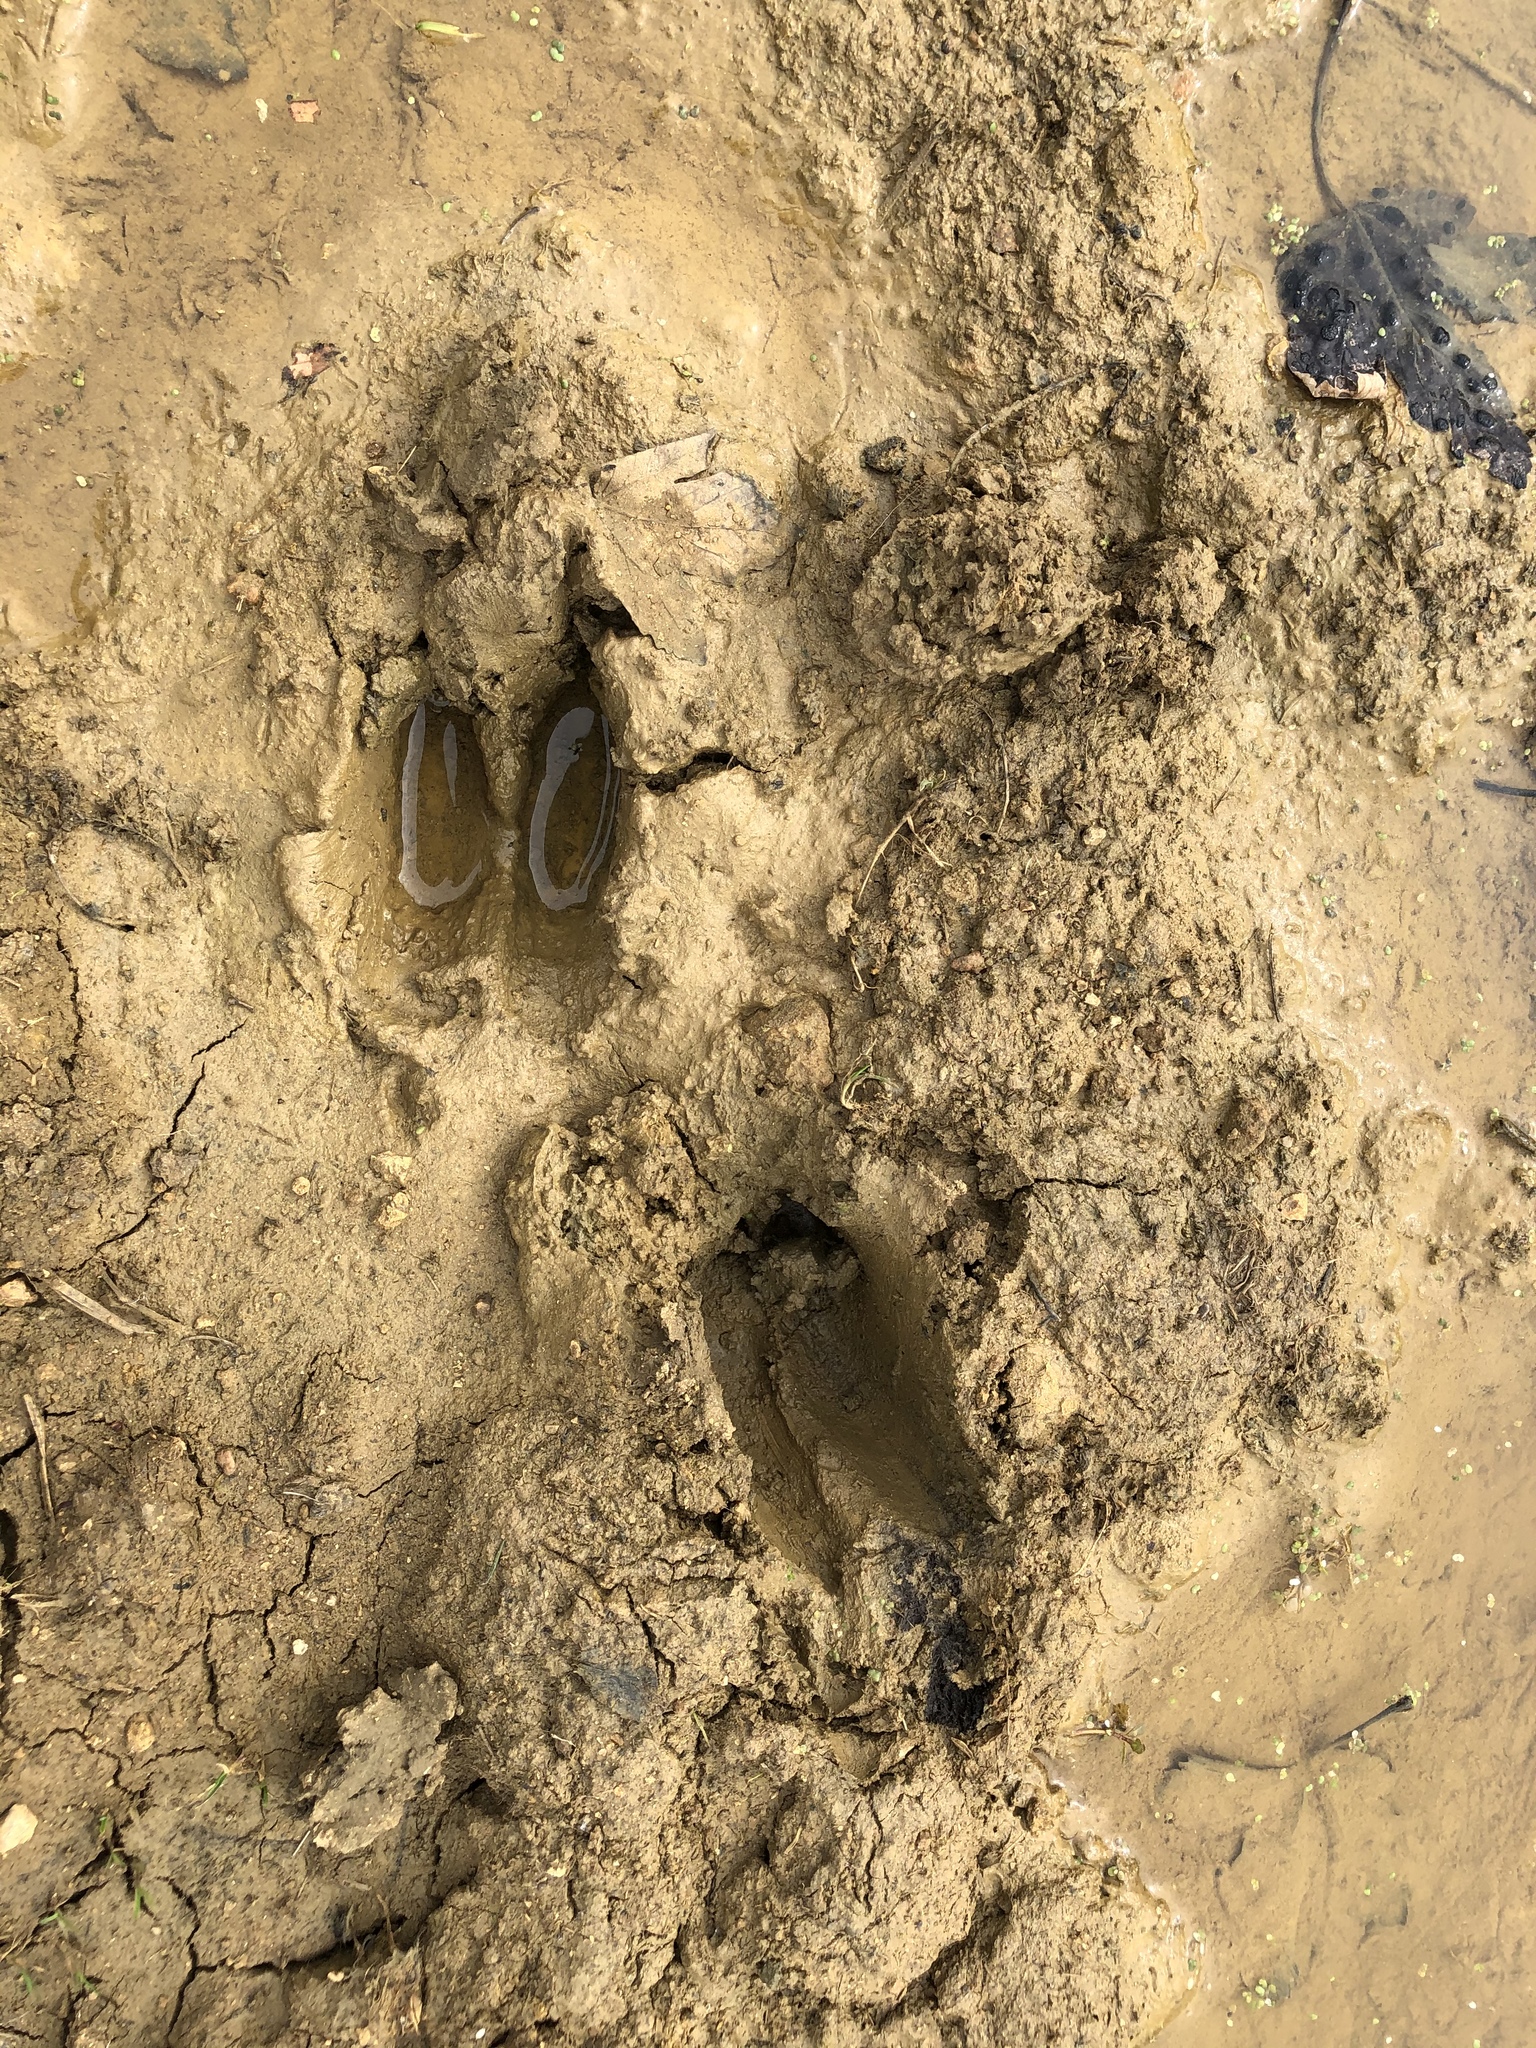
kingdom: Animalia
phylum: Chordata
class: Mammalia
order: Artiodactyla
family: Suidae
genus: Sus
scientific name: Sus scrofa
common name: Wild boar
